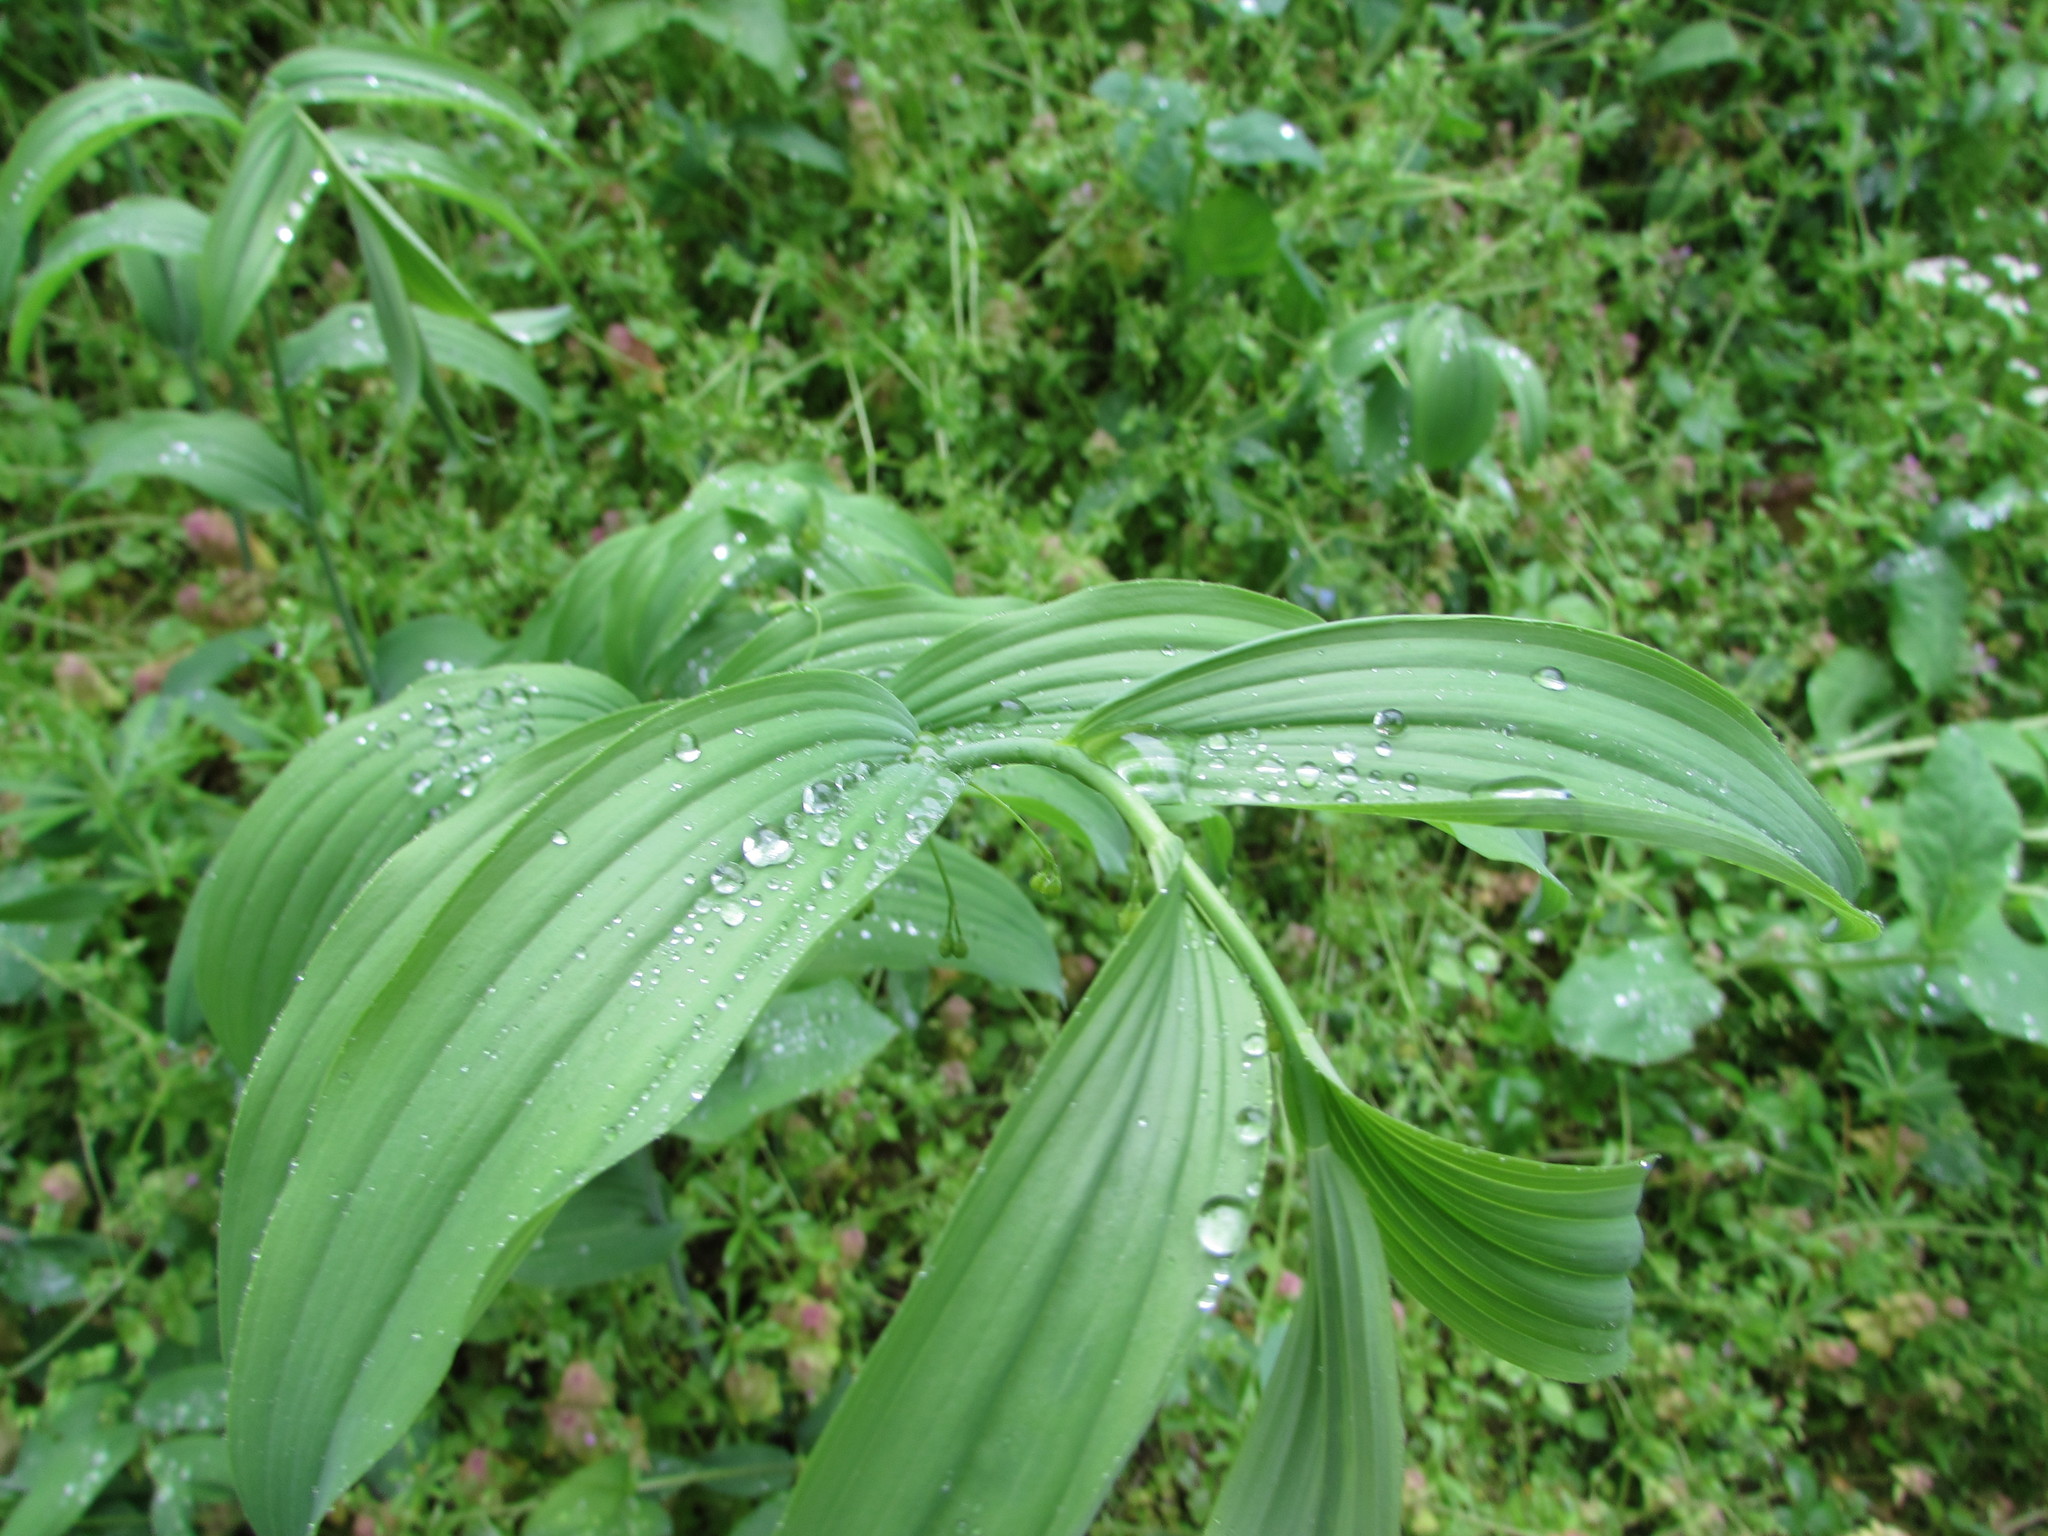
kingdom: Plantae
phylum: Tracheophyta
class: Liliopsida
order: Asparagales
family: Asparagaceae
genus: Polygonatum
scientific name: Polygonatum biflorum
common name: American solomon's-seal
